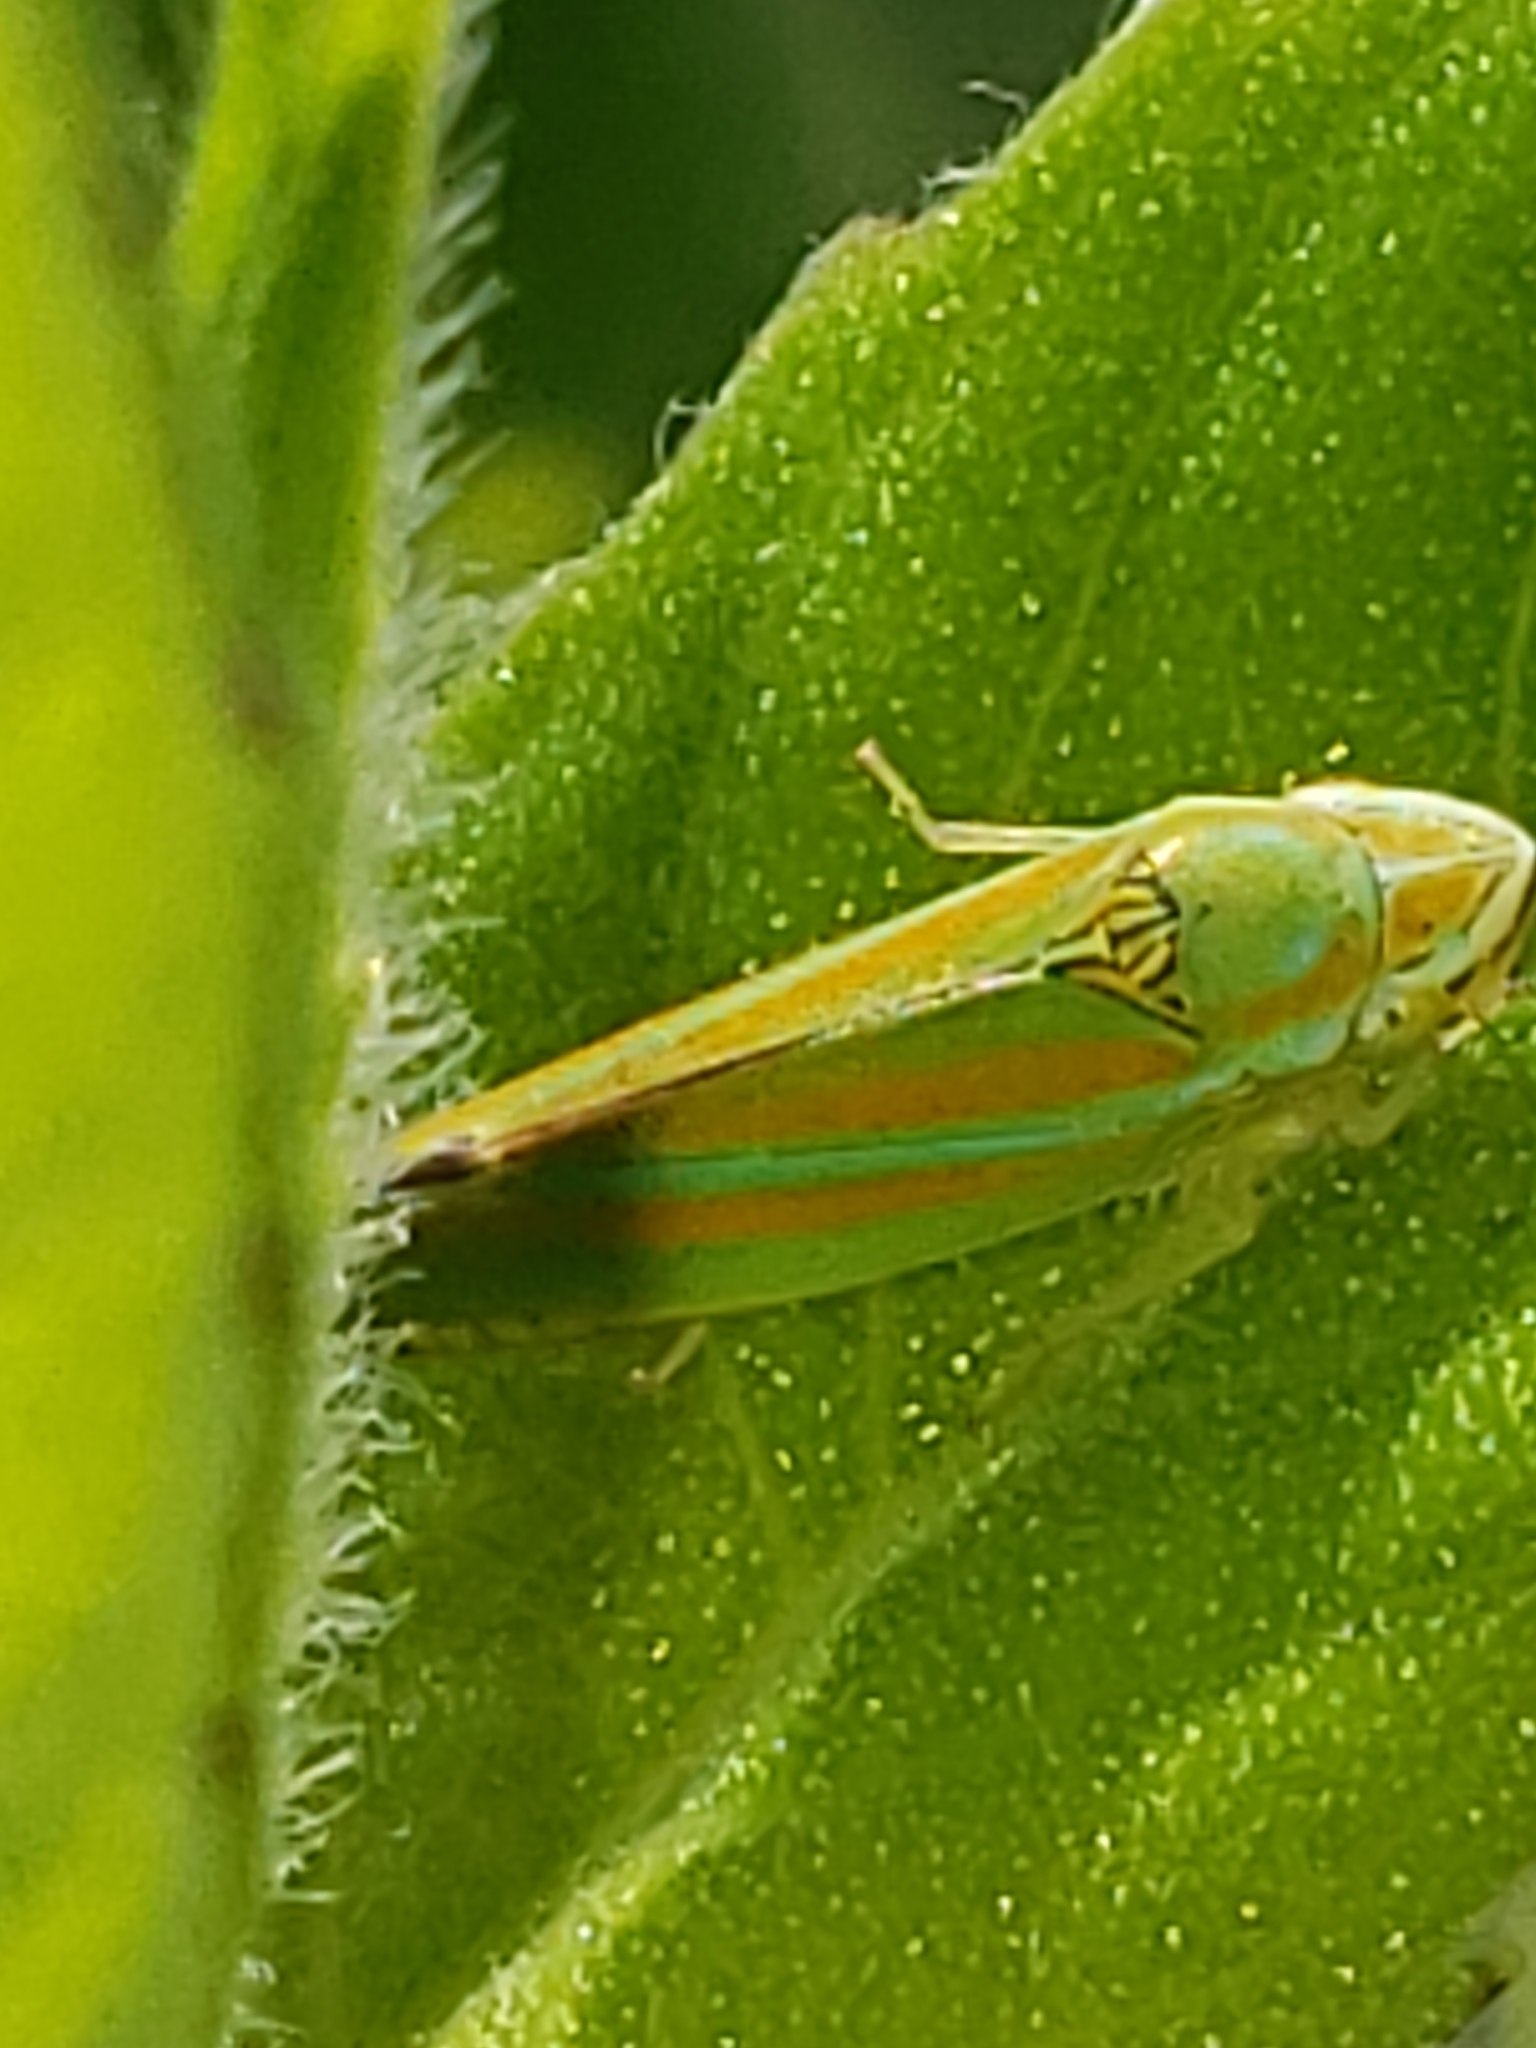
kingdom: Animalia
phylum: Arthropoda
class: Insecta
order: Hemiptera
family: Cicadellidae
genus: Graphocephala
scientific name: Graphocephala versuta
